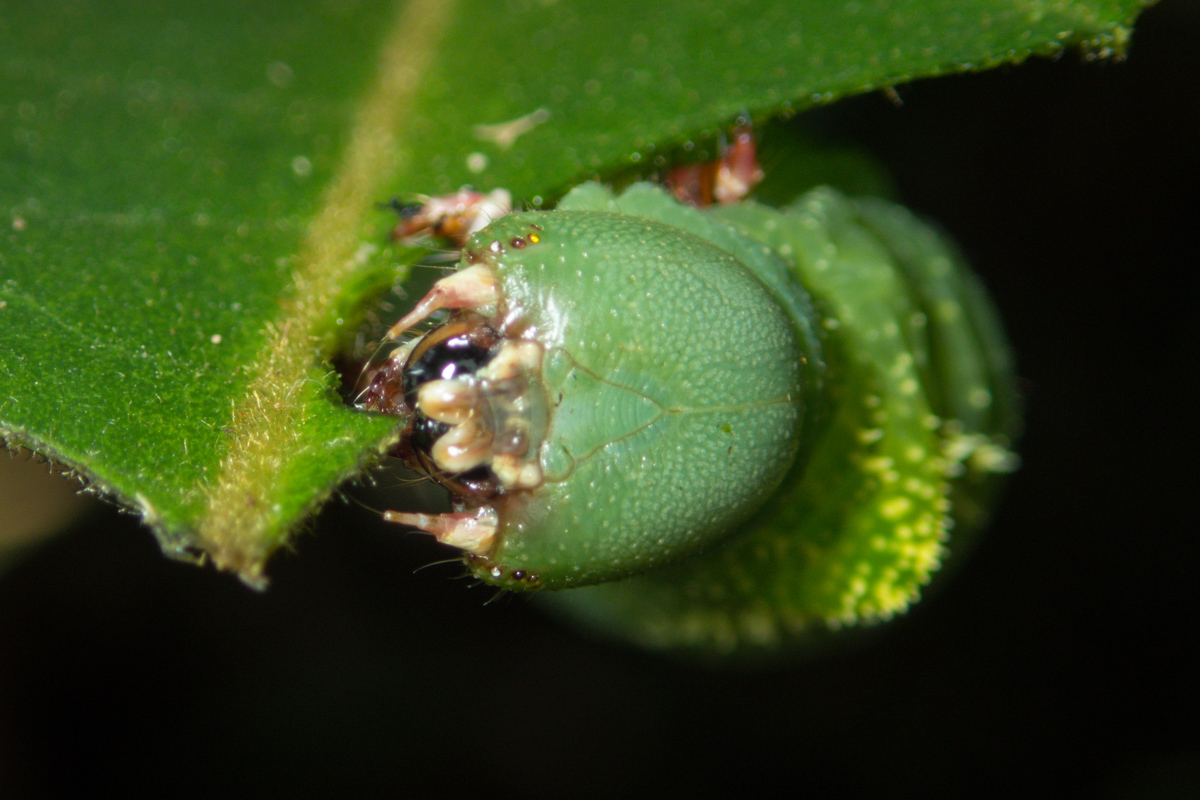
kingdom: Animalia
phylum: Arthropoda
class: Insecta
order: Lepidoptera
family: Sphingidae
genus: Meganoton
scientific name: Meganoton nyctiphanes
